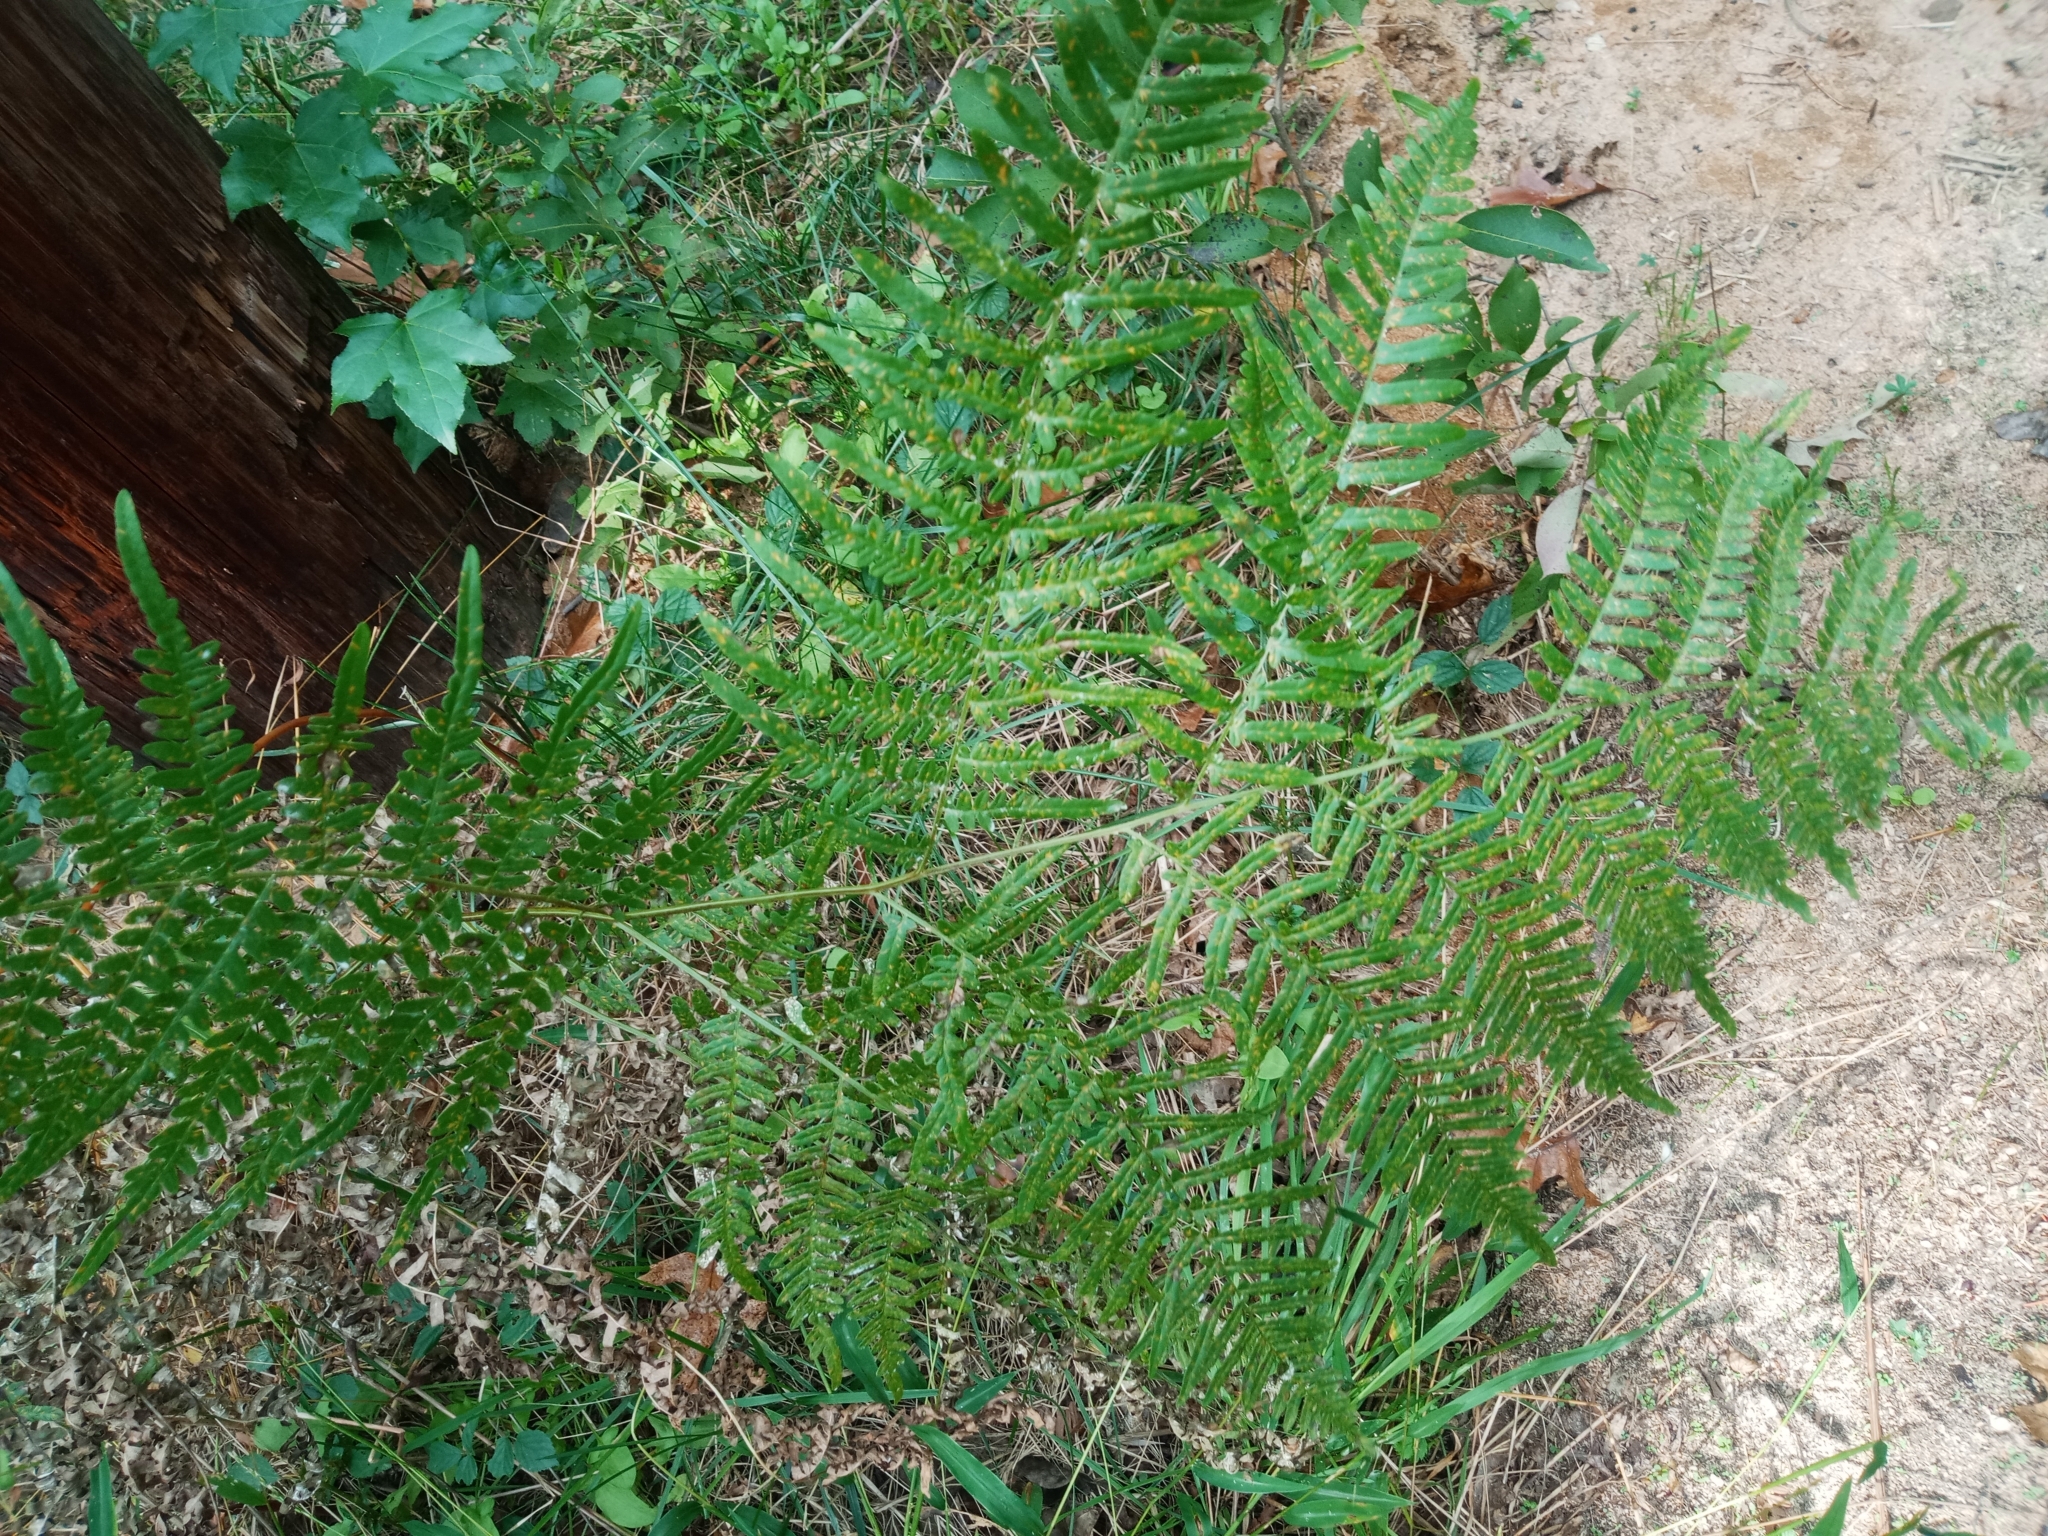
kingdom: Plantae
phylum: Tracheophyta
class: Polypodiopsida
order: Polypodiales
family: Dennstaedtiaceae
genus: Pteridium
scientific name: Pteridium aquilinum
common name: Bracken
